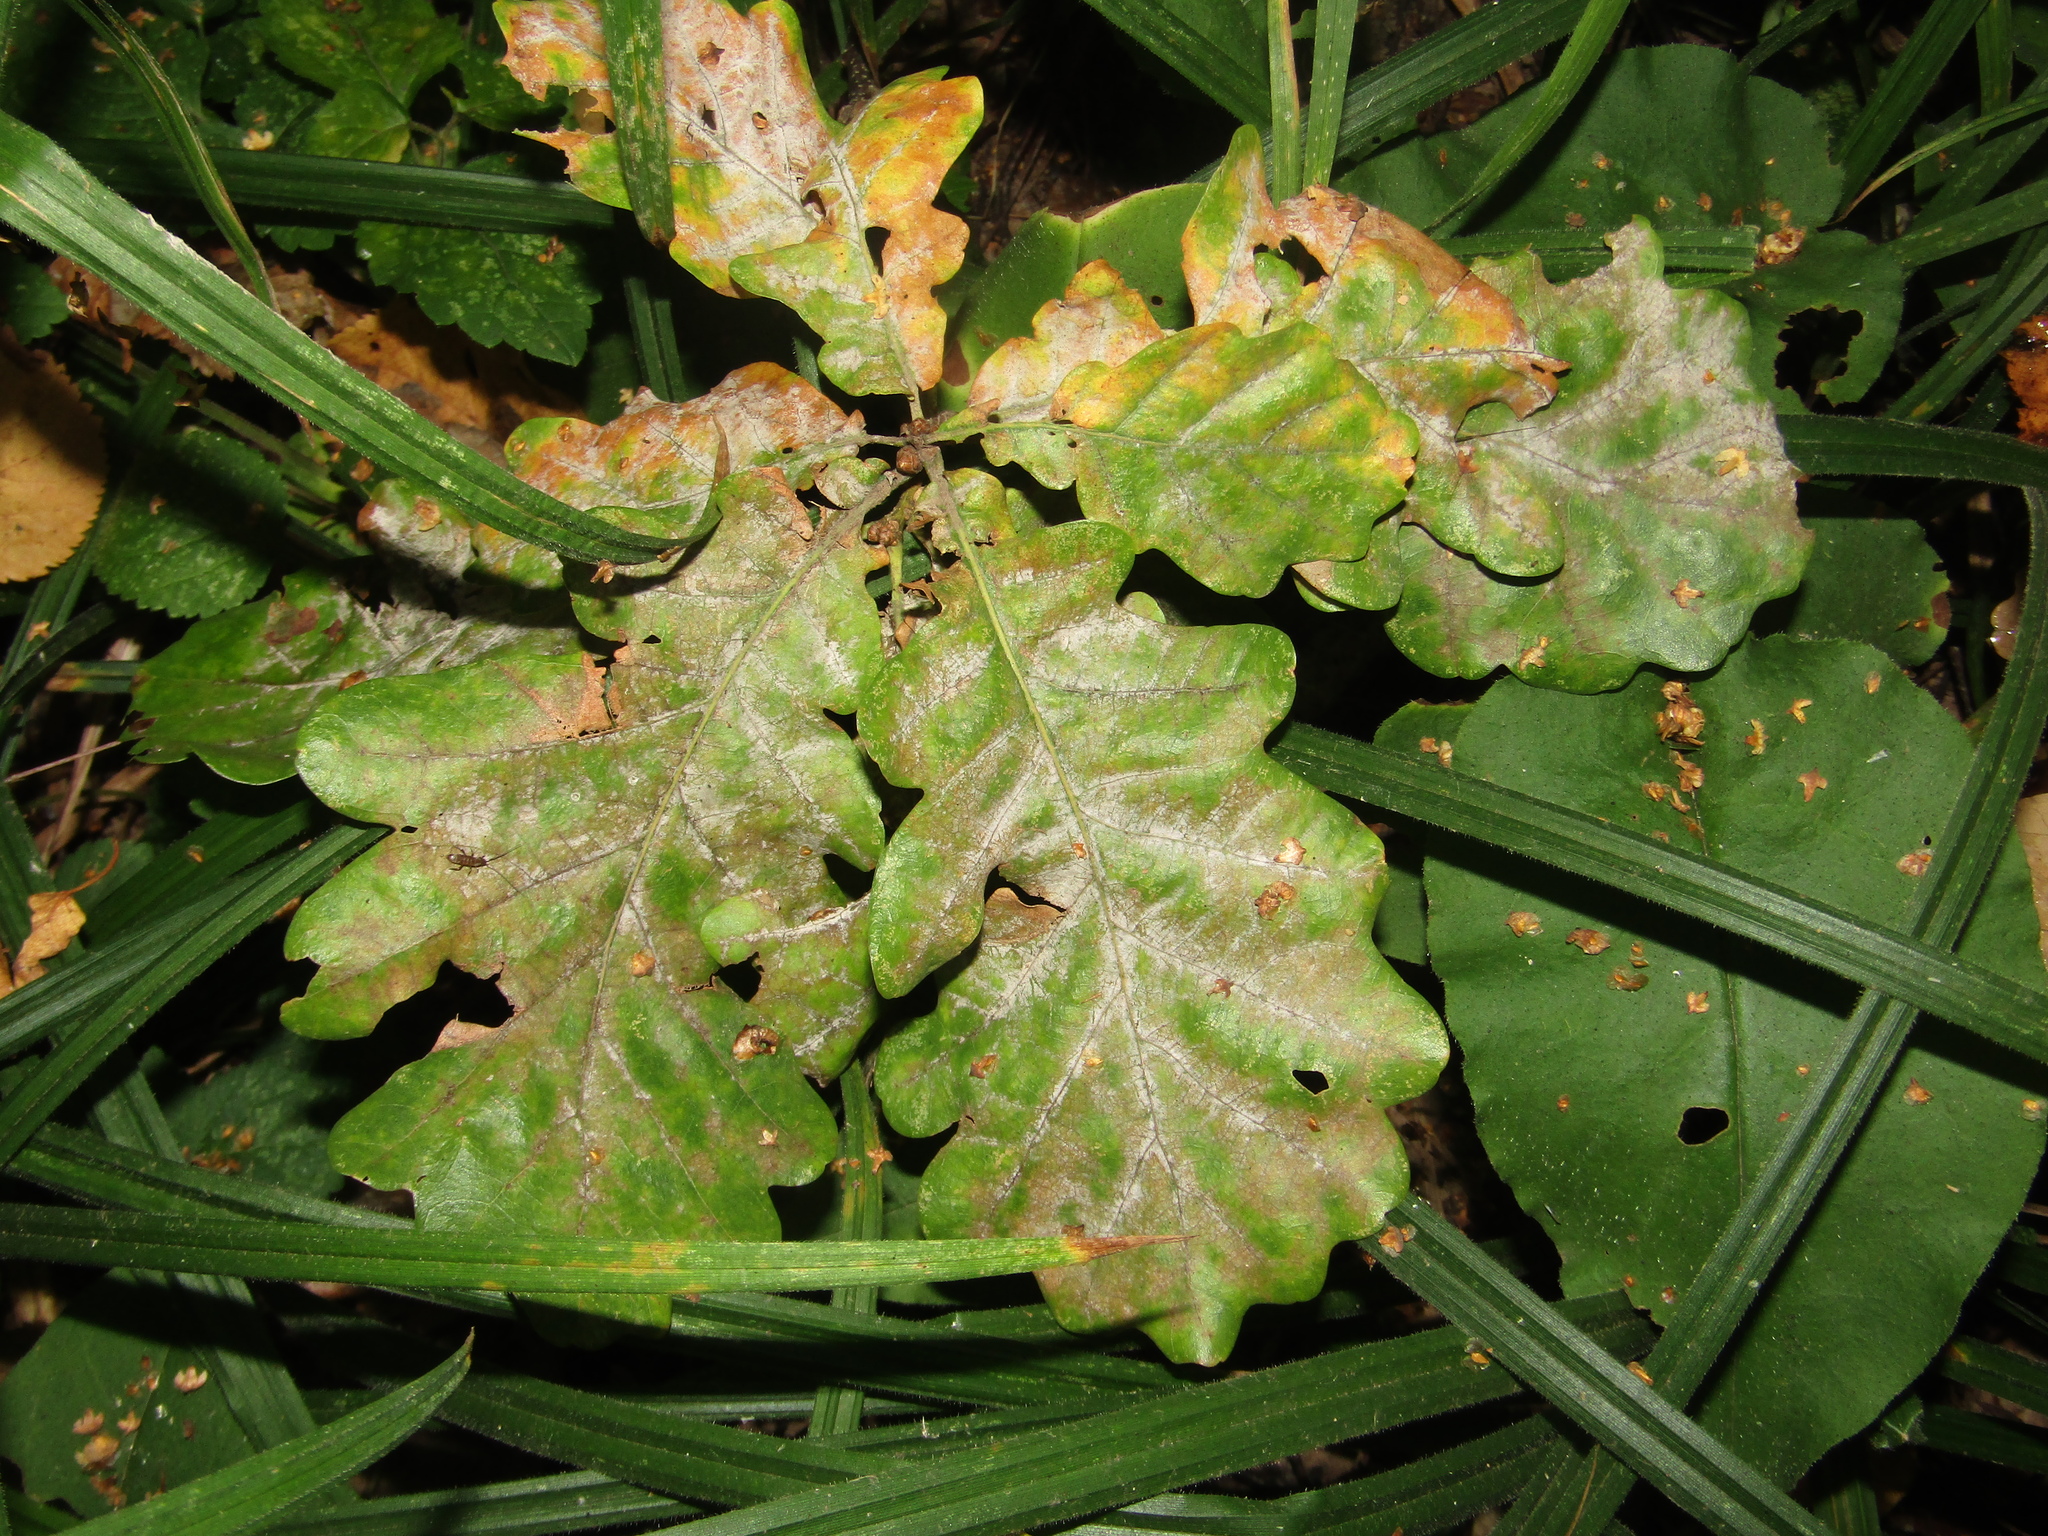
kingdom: Plantae
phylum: Tracheophyta
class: Magnoliopsida
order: Fagales
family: Fagaceae
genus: Quercus
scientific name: Quercus robur
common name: Pedunculate oak
